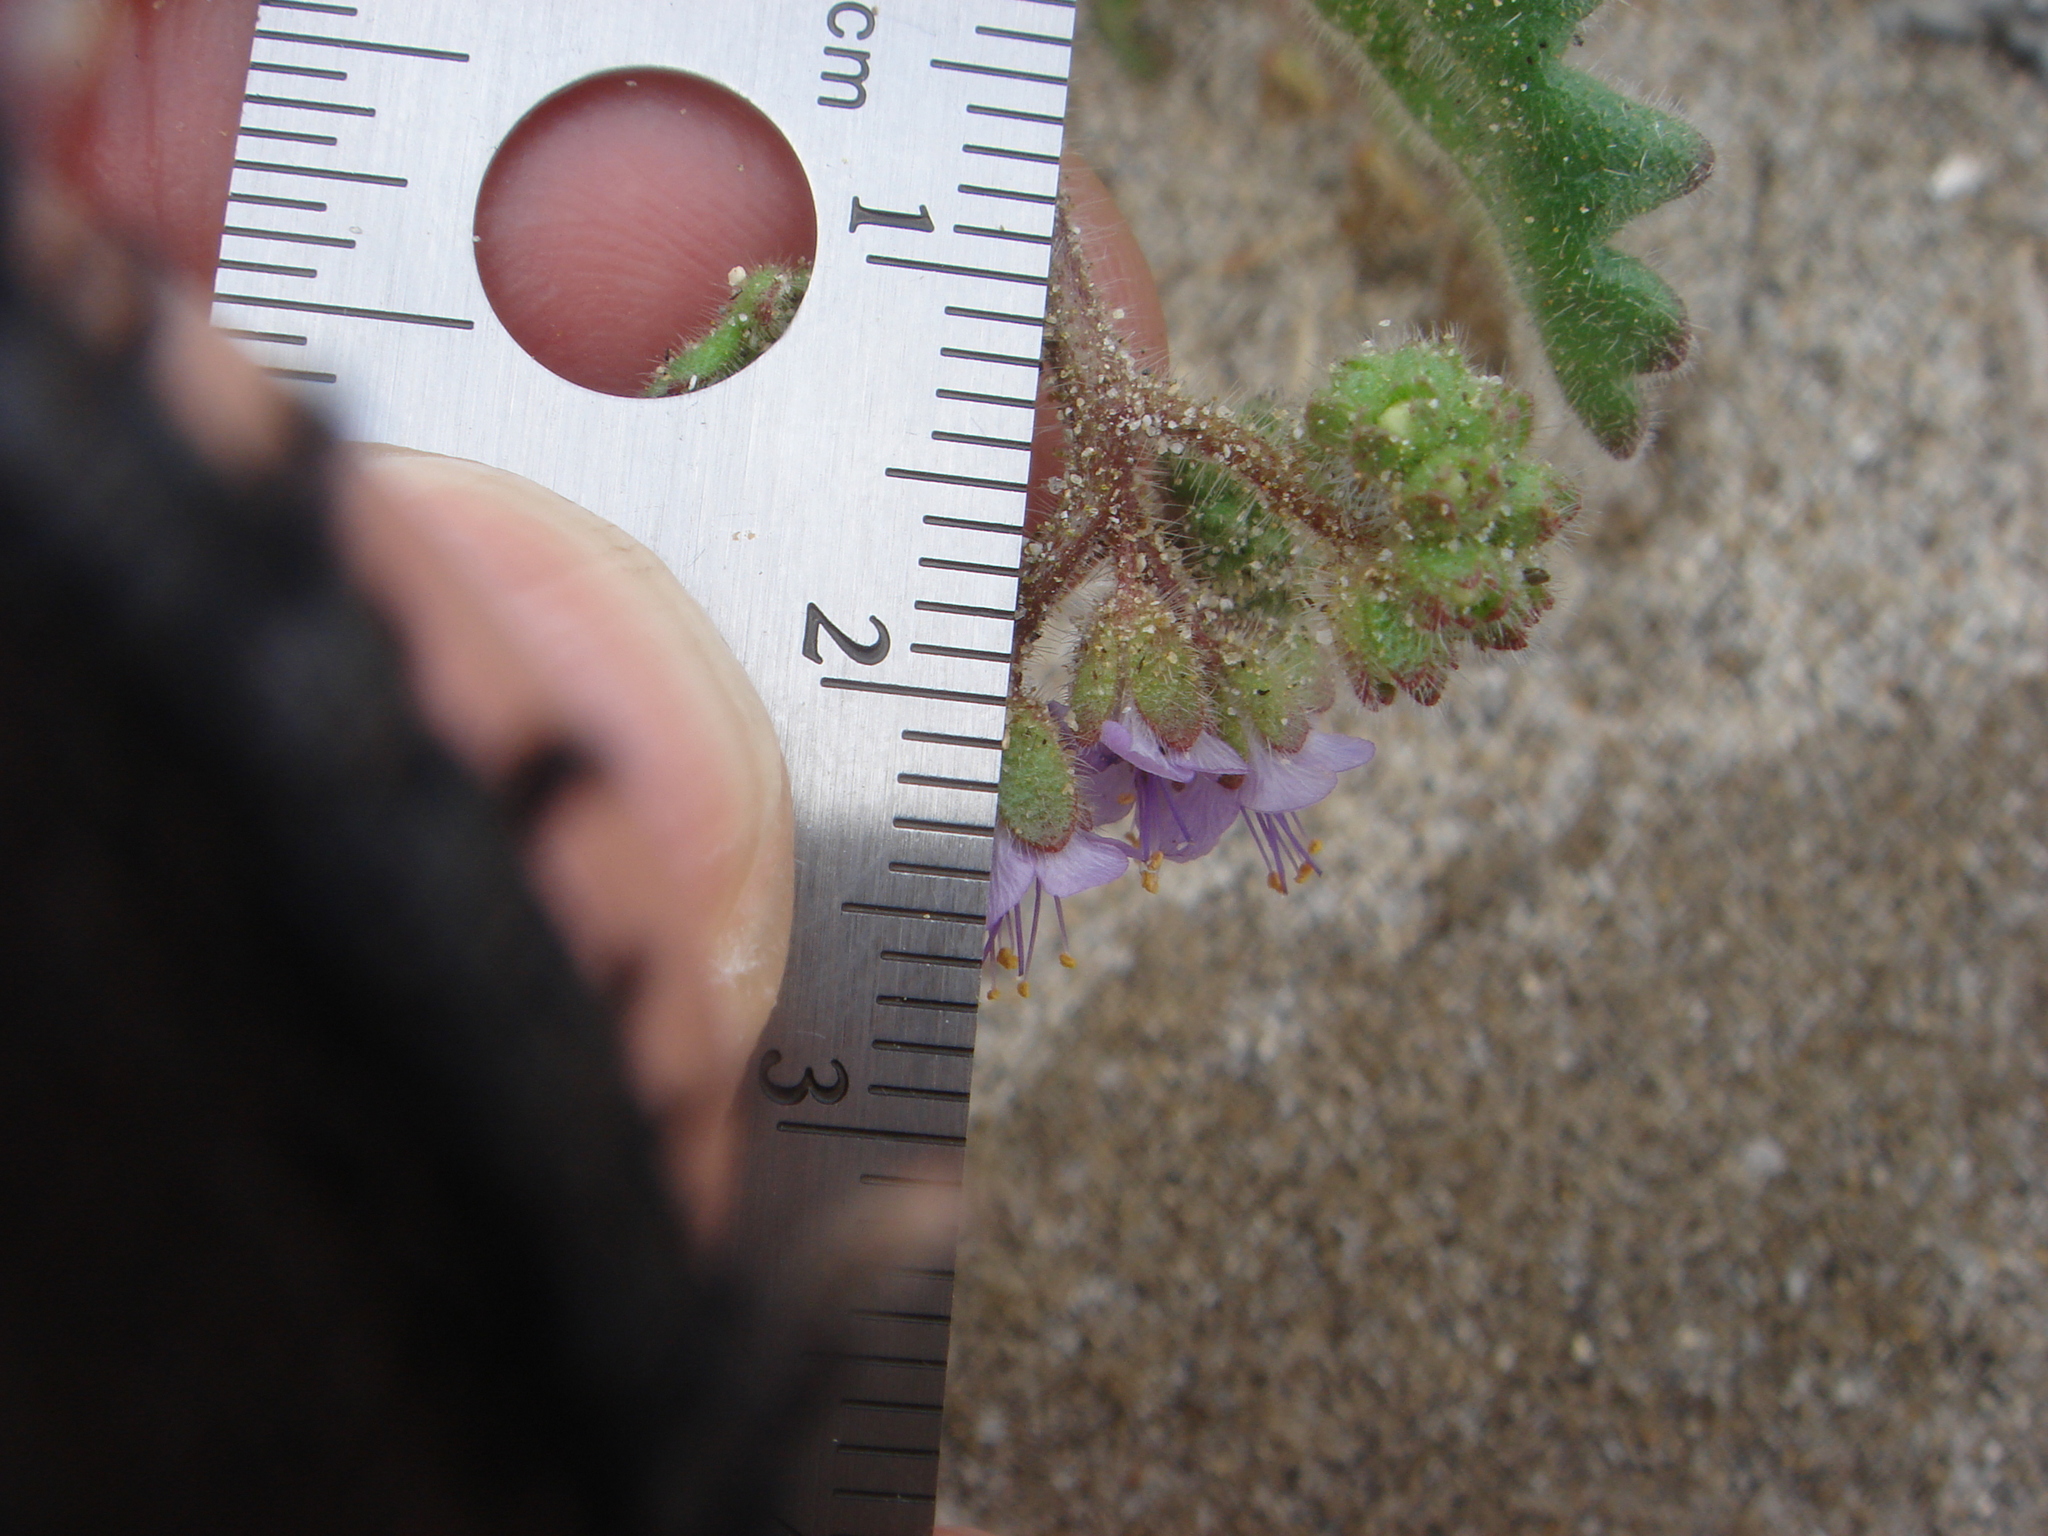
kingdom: Plantae
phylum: Tracheophyta
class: Magnoliopsida
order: Boraginales
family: Hydrophyllaceae
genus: Phacelia
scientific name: Phacelia minutiflora
